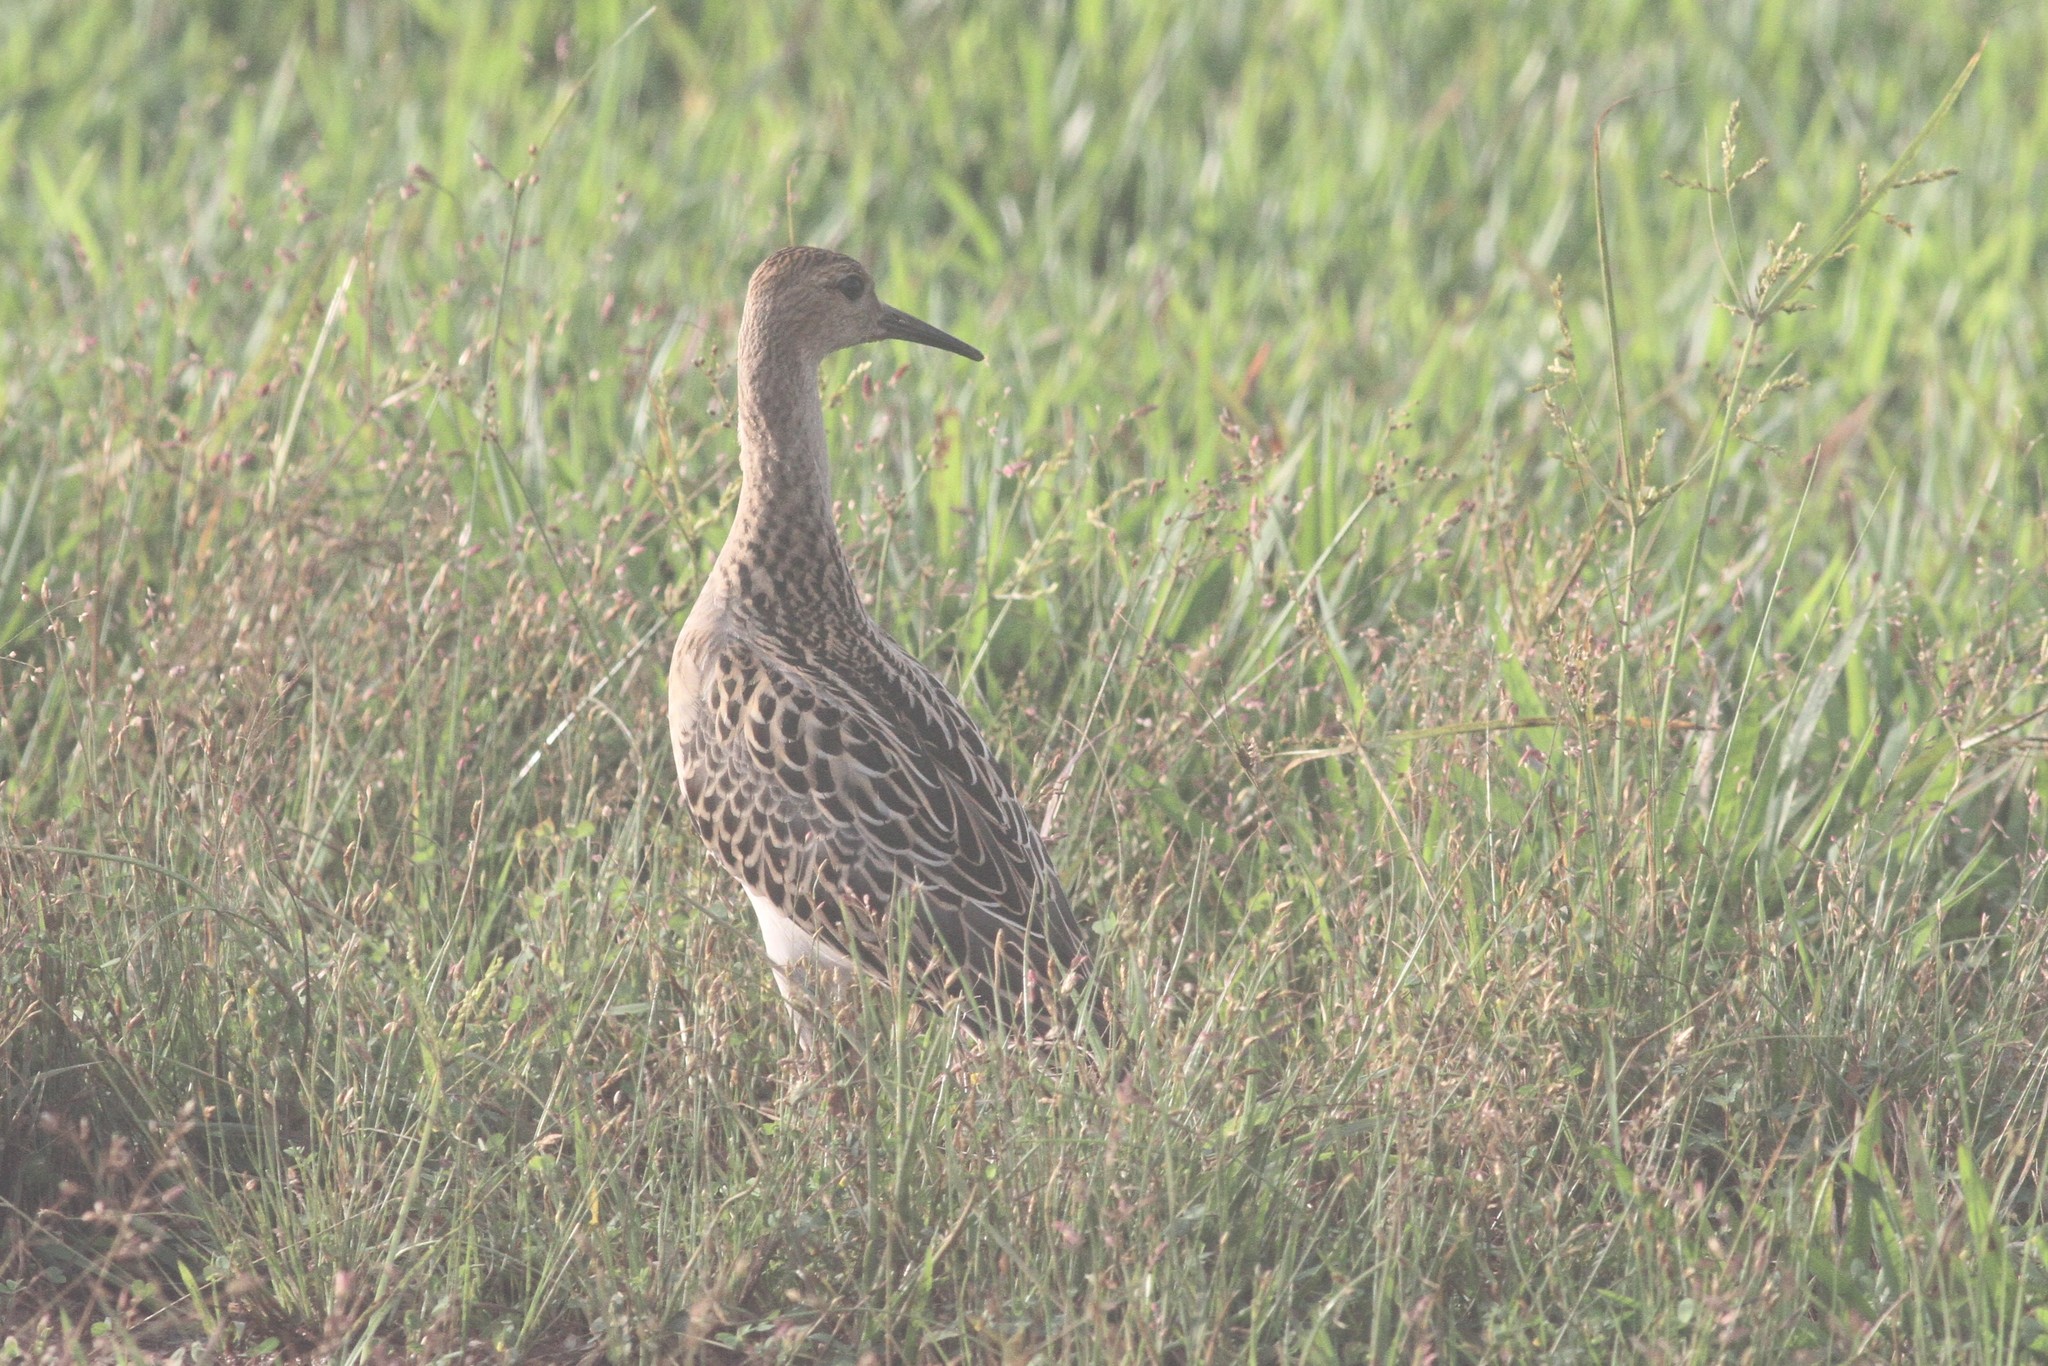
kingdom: Animalia
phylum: Chordata
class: Aves
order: Charadriiformes
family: Scolopacidae
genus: Calidris
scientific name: Calidris pugnax
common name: Ruff
